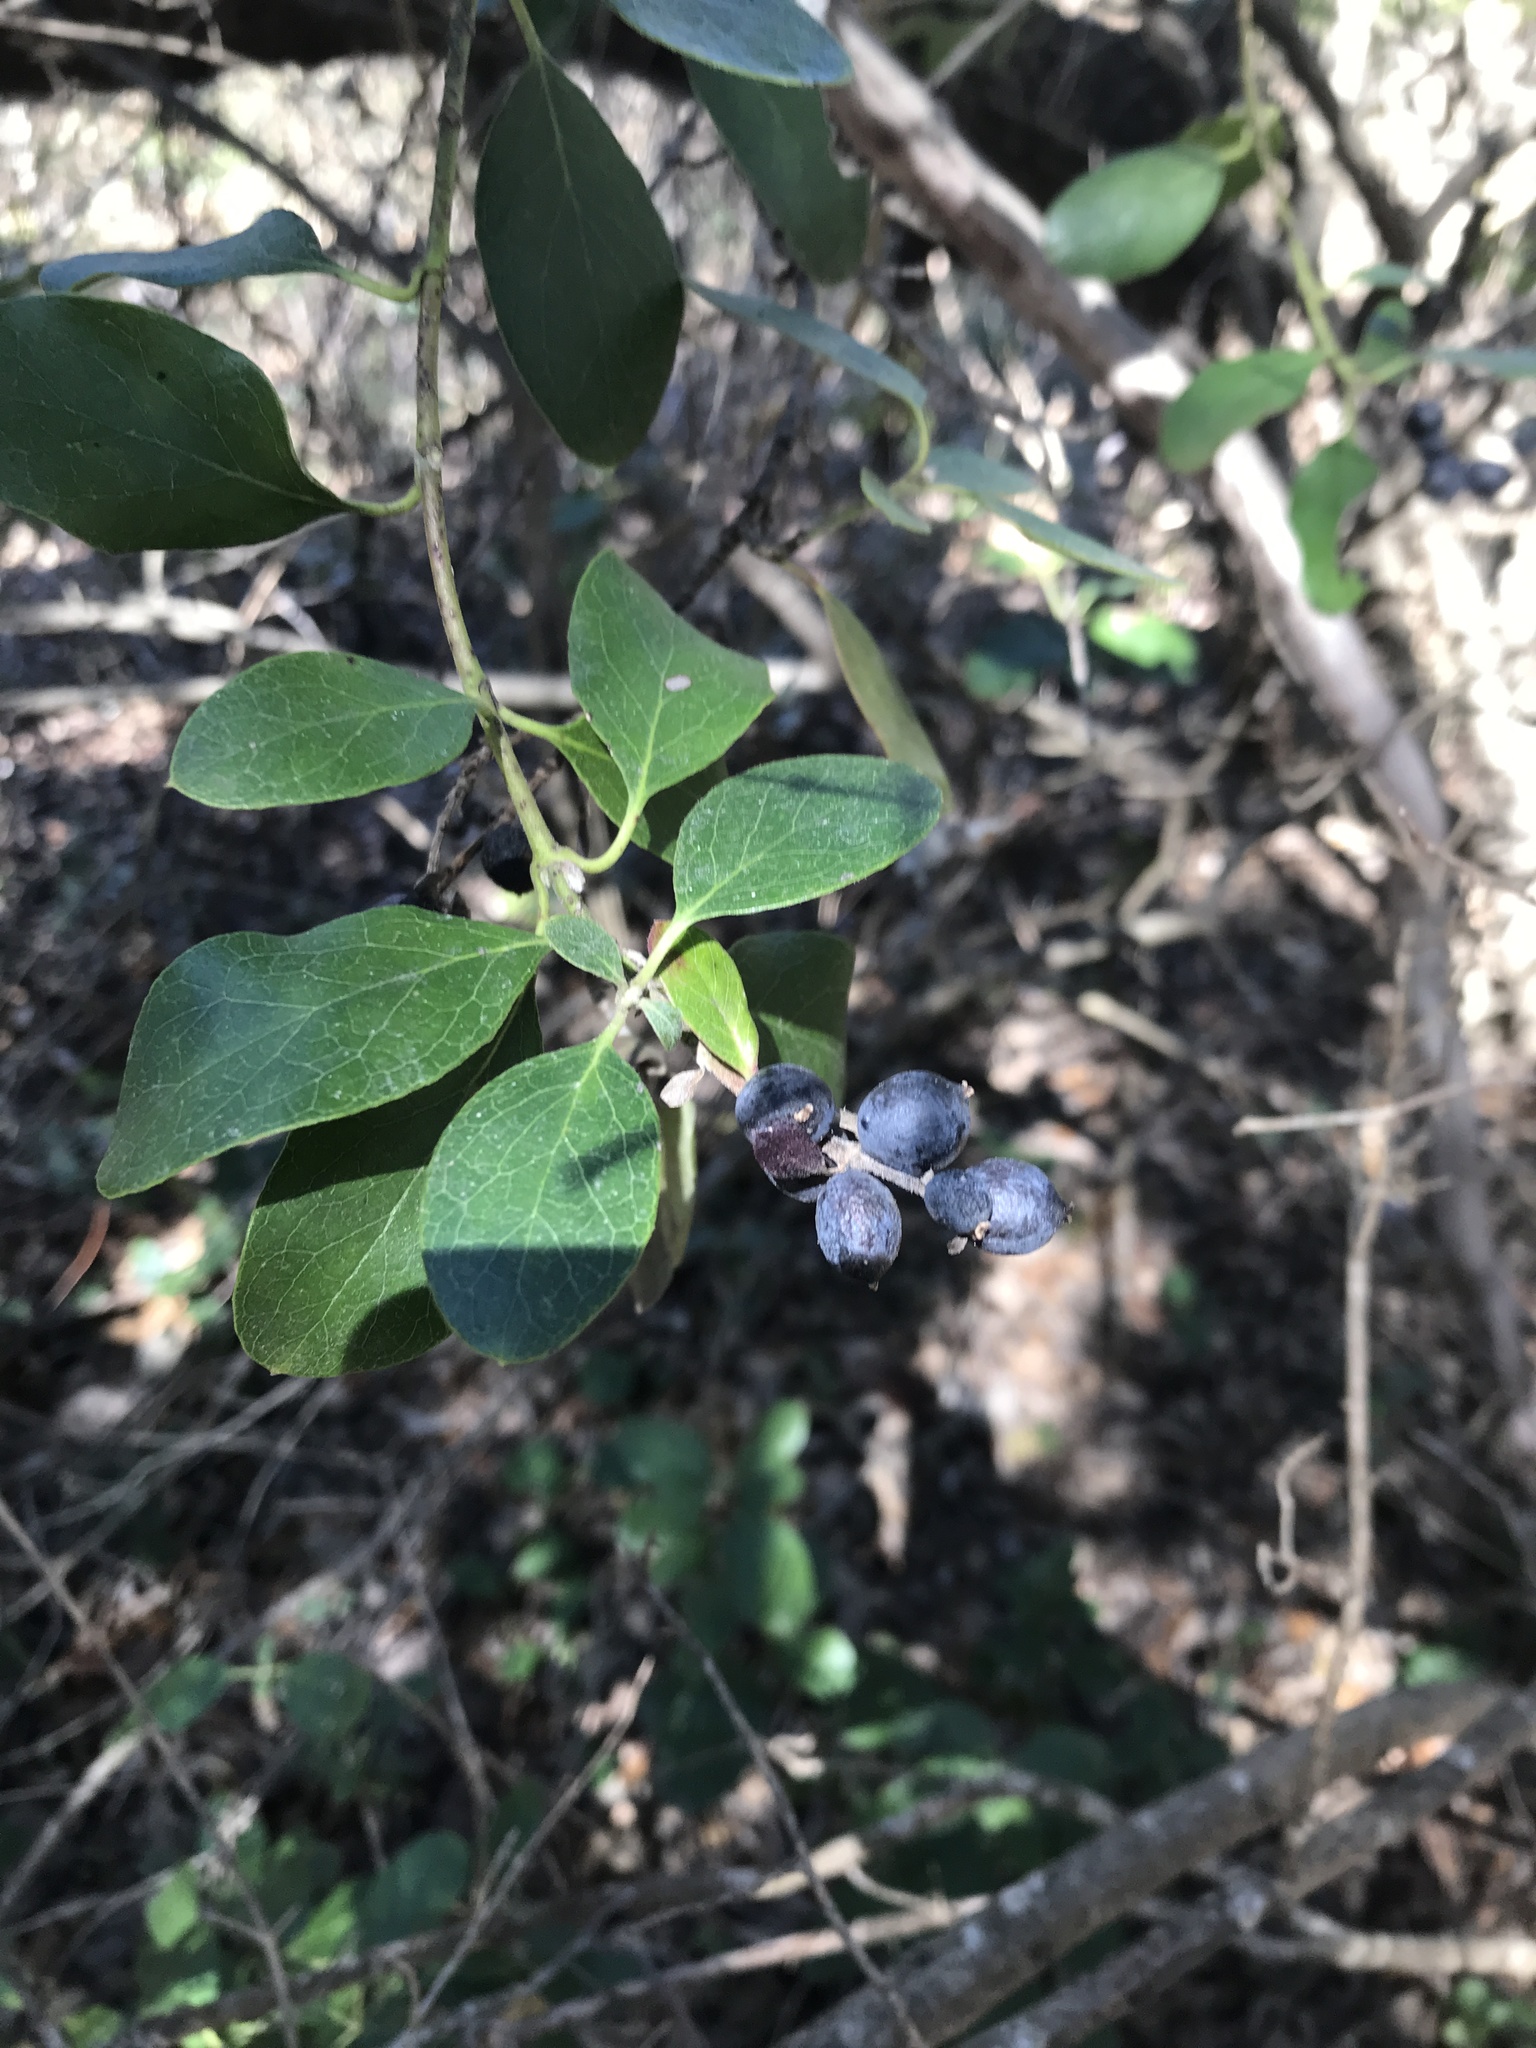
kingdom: Plantae
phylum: Tracheophyta
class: Magnoliopsida
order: Garryales
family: Garryaceae
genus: Garrya
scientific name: Garrya lindheimeri
